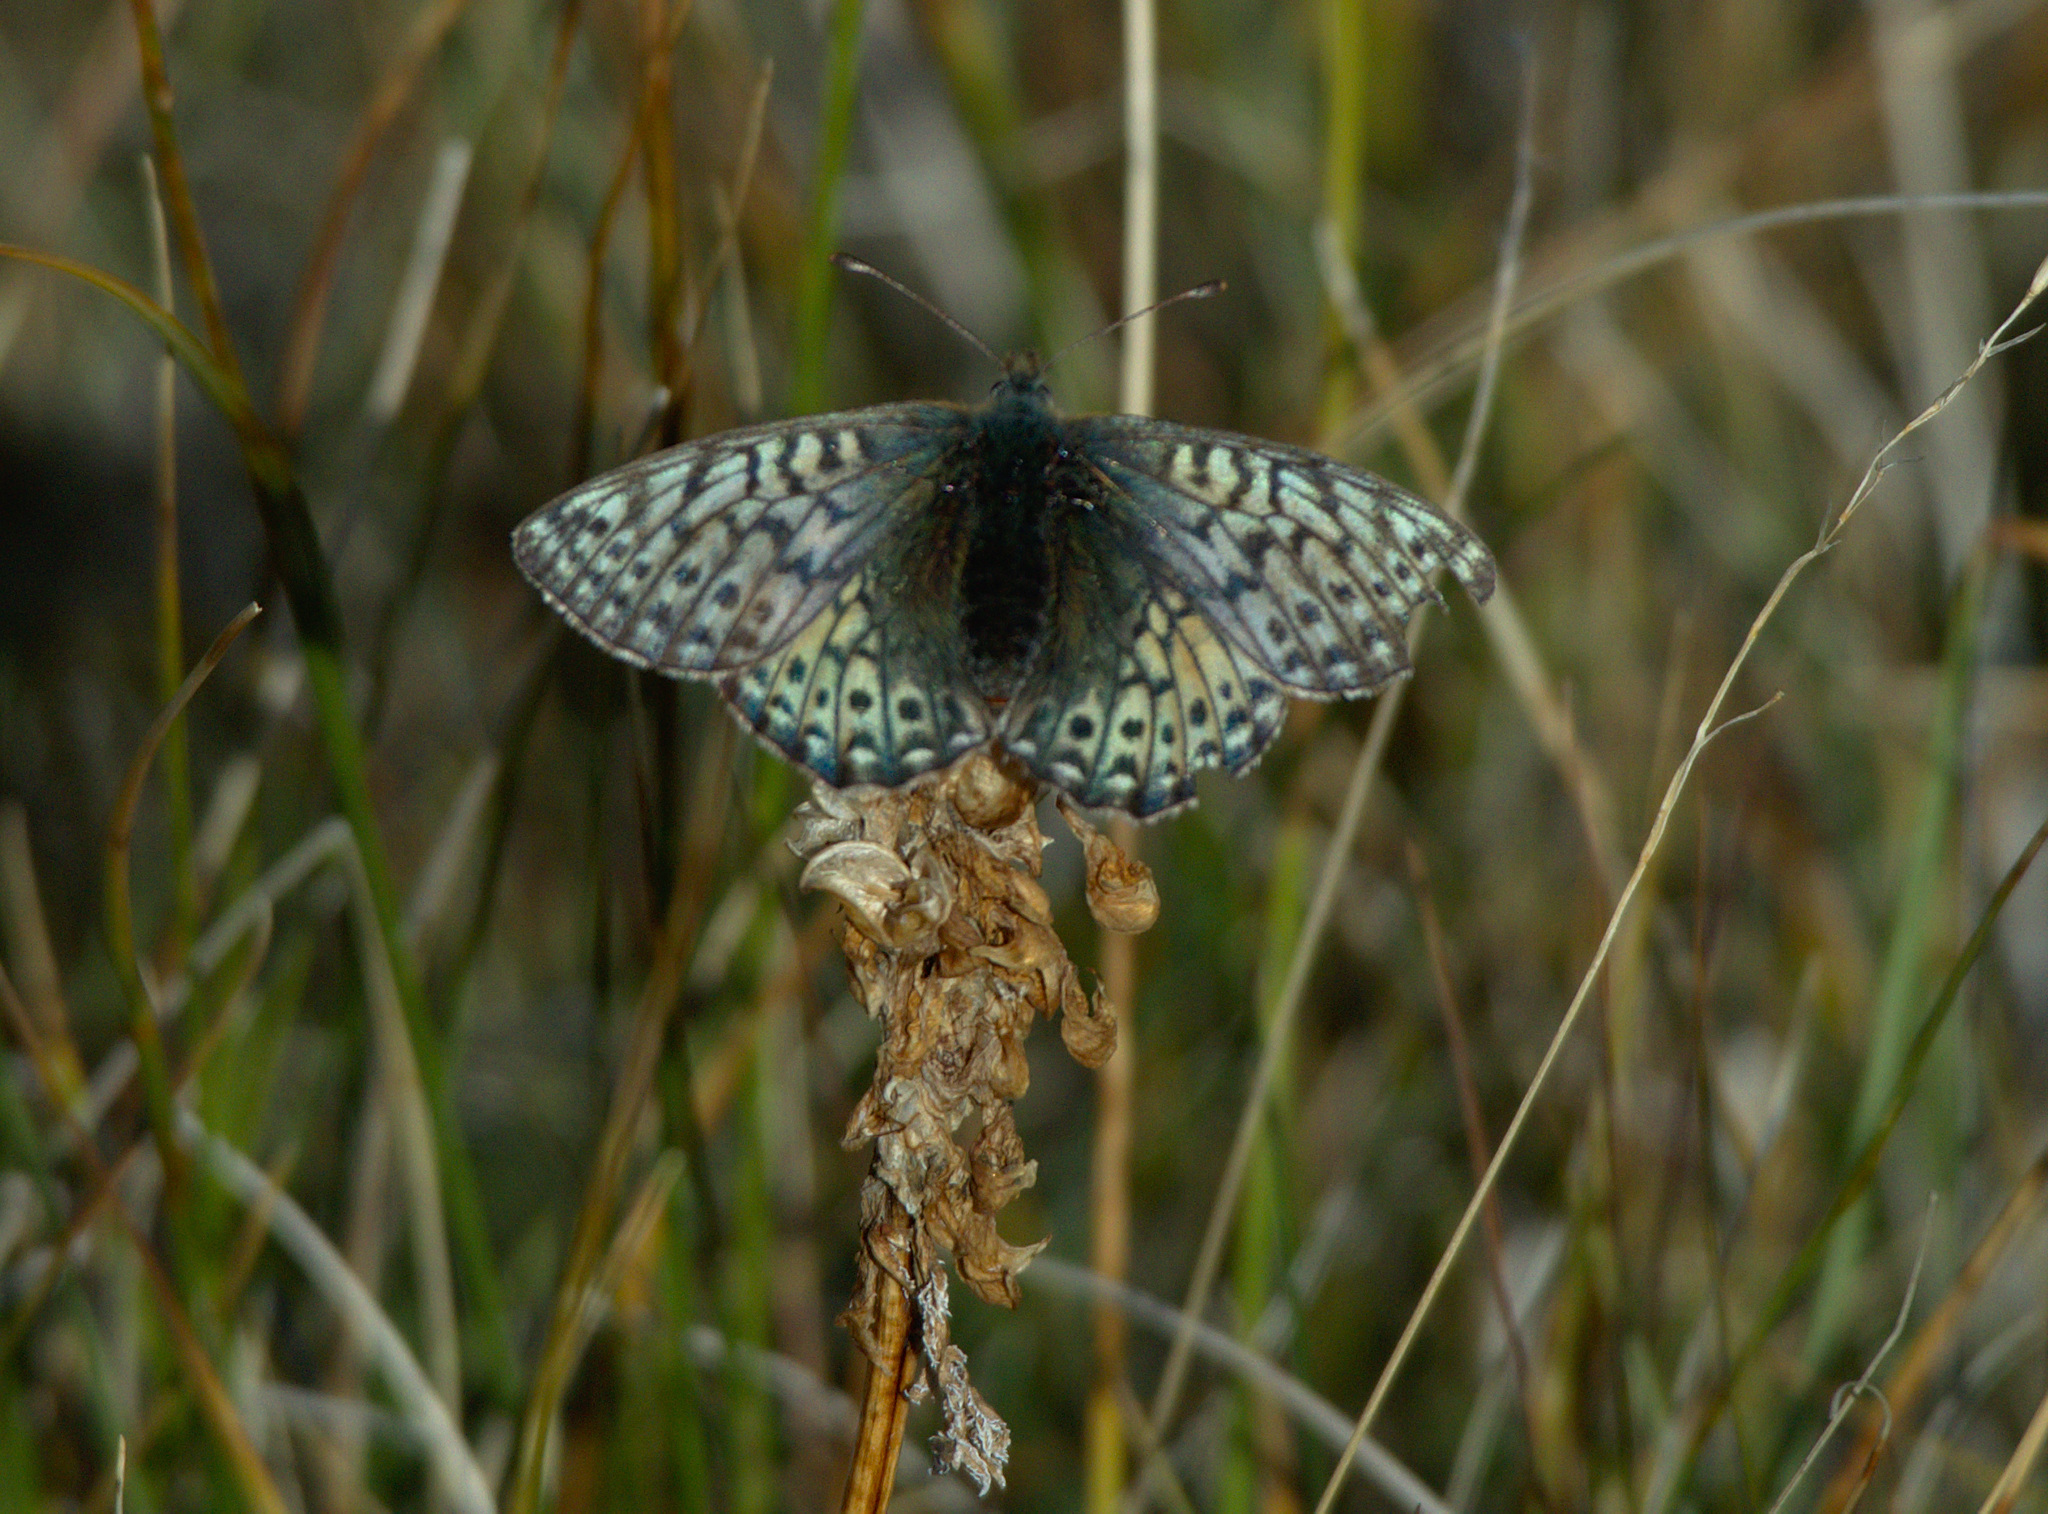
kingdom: Animalia
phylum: Arthropoda
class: Insecta
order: Lepidoptera
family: Nymphalidae
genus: Boloria
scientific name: Boloria
